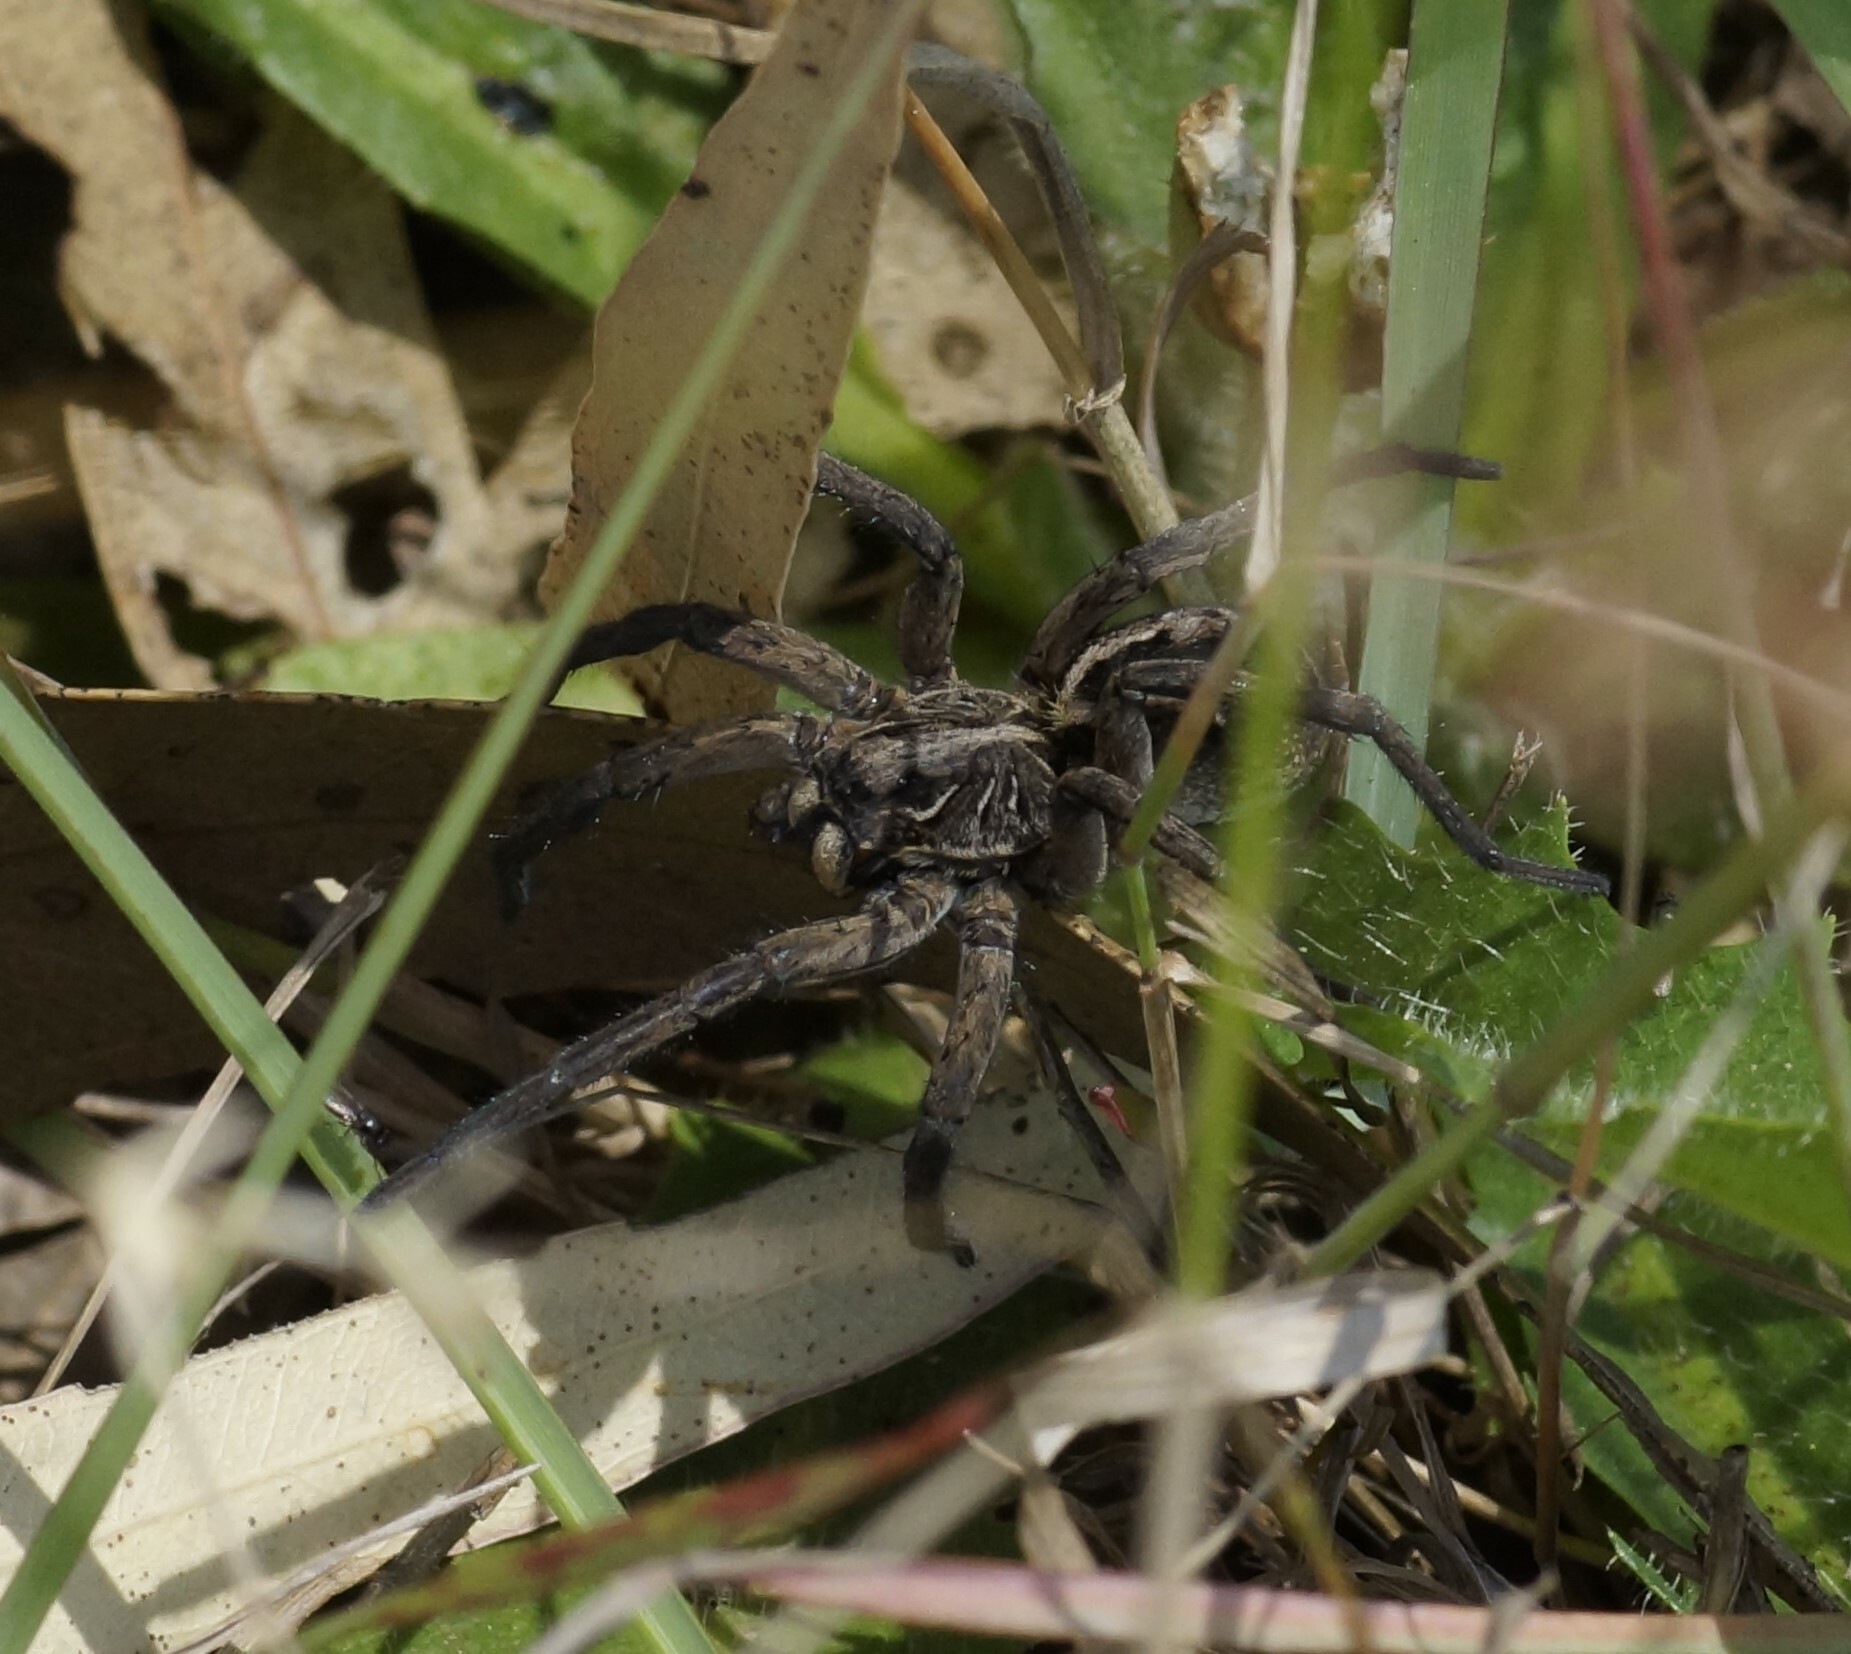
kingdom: Animalia
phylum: Arthropoda
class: Arachnida
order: Araneae
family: Lycosidae
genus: Tasmanicosa
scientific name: Tasmanicosa
